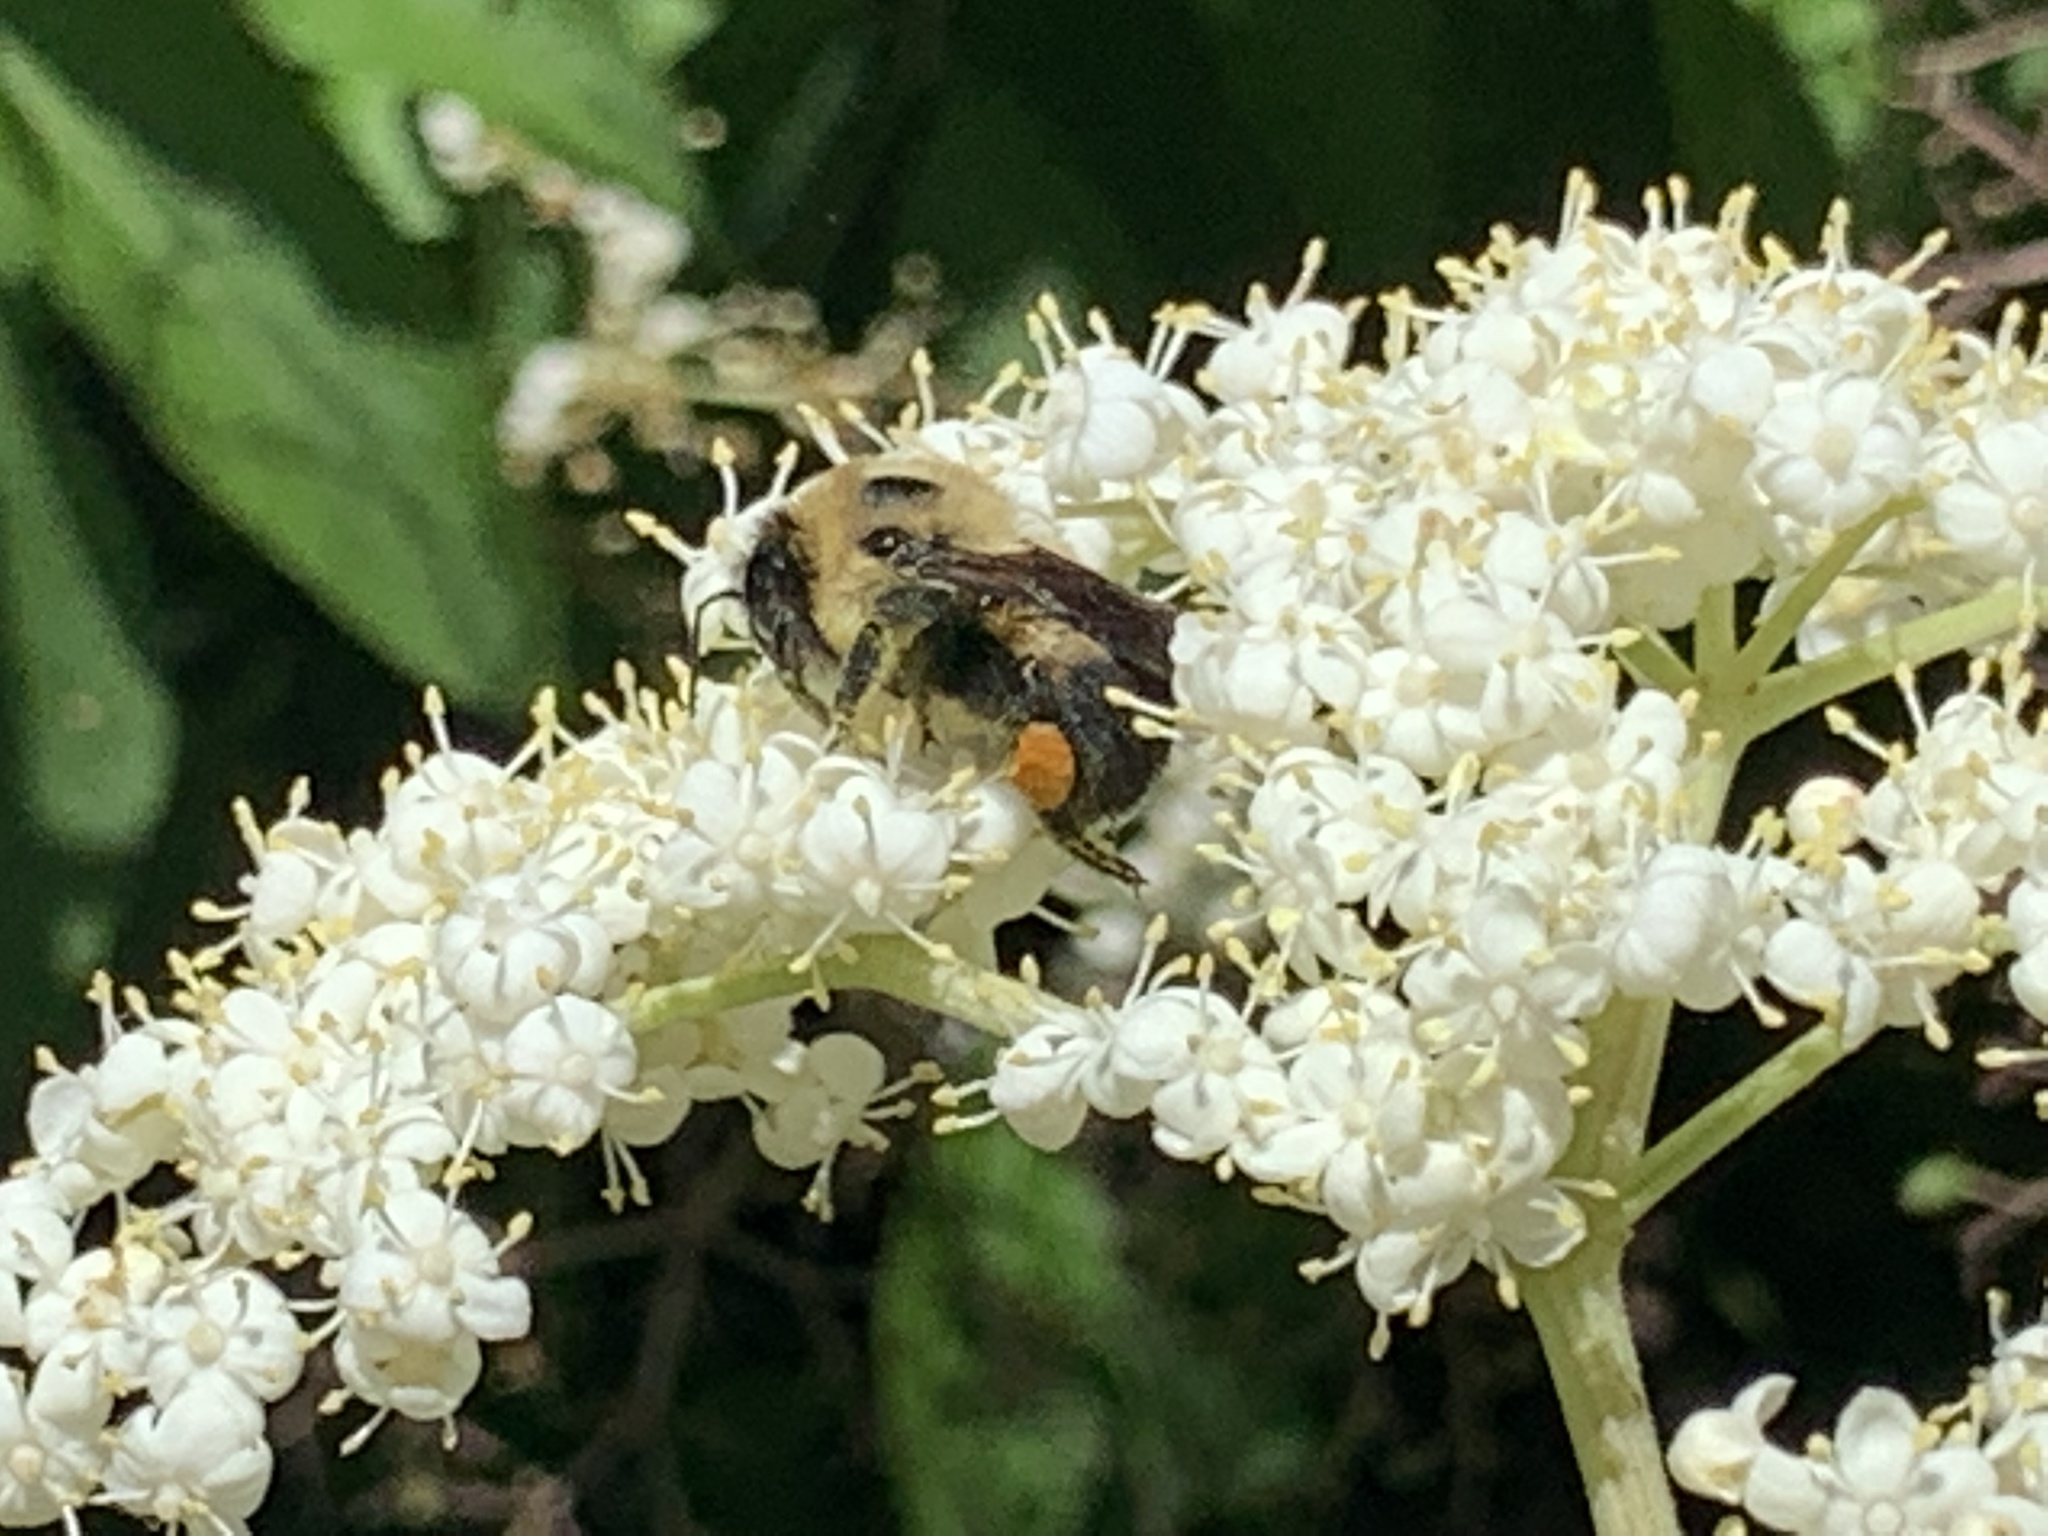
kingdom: Animalia
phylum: Arthropoda
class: Insecta
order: Hymenoptera
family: Apidae
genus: Bombus
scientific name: Bombus griseocollis
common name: Brown-belted bumble bee
